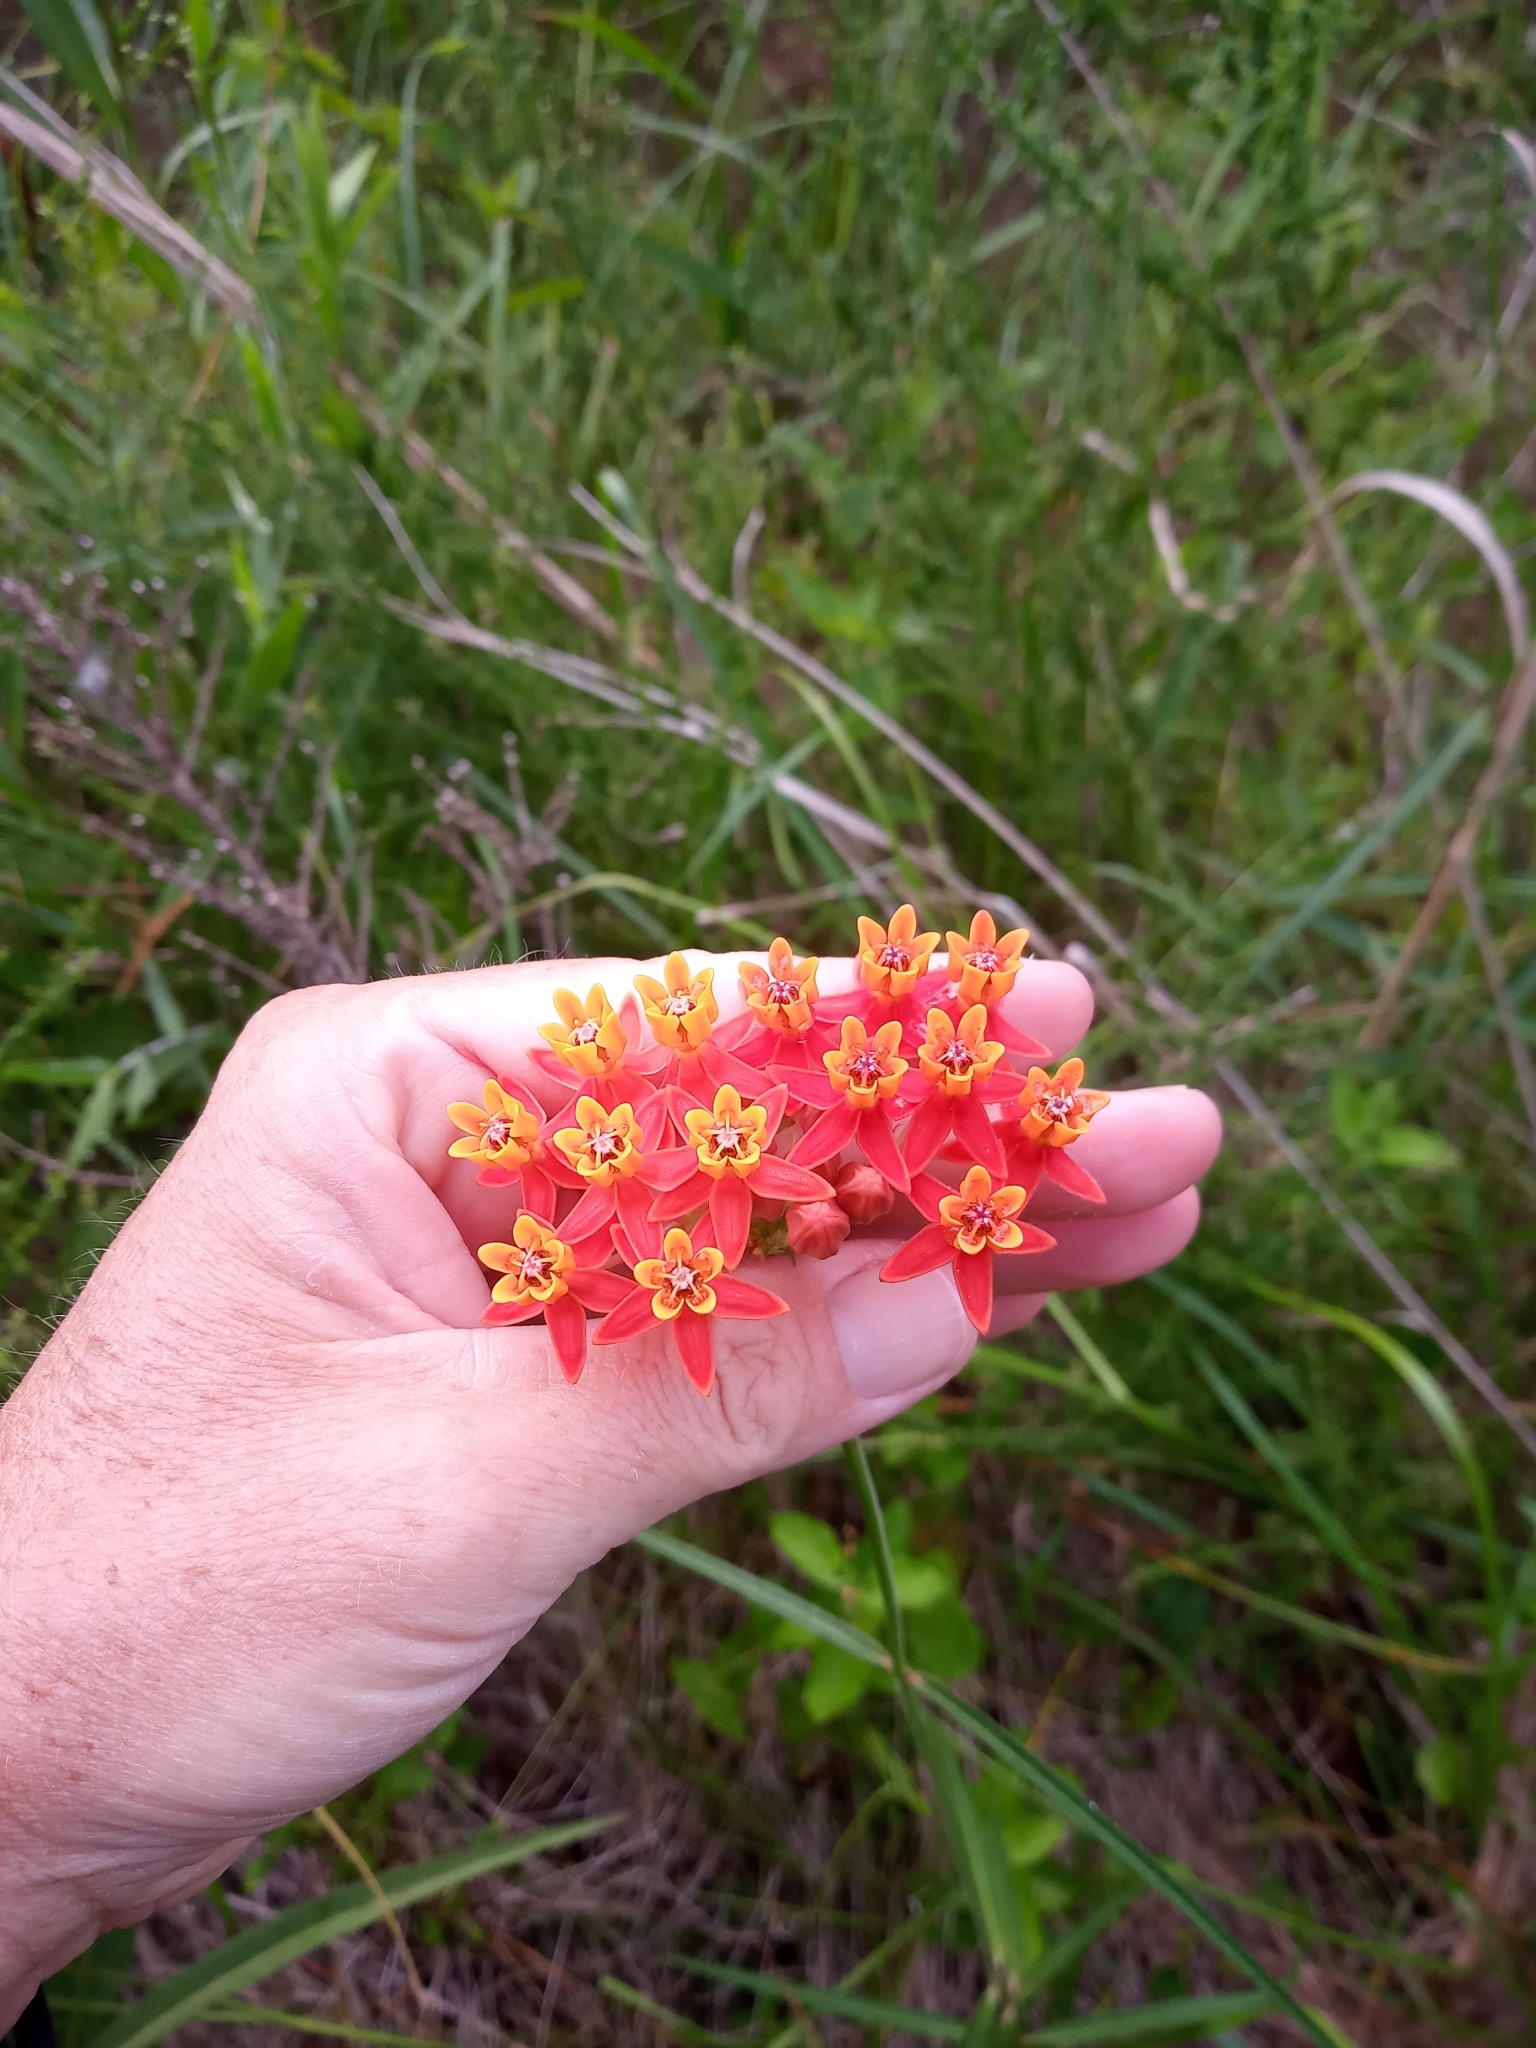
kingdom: Plantae
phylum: Tracheophyta
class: Magnoliopsida
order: Gentianales
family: Apocynaceae
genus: Asclepias
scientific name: Asclepias lanceolata
